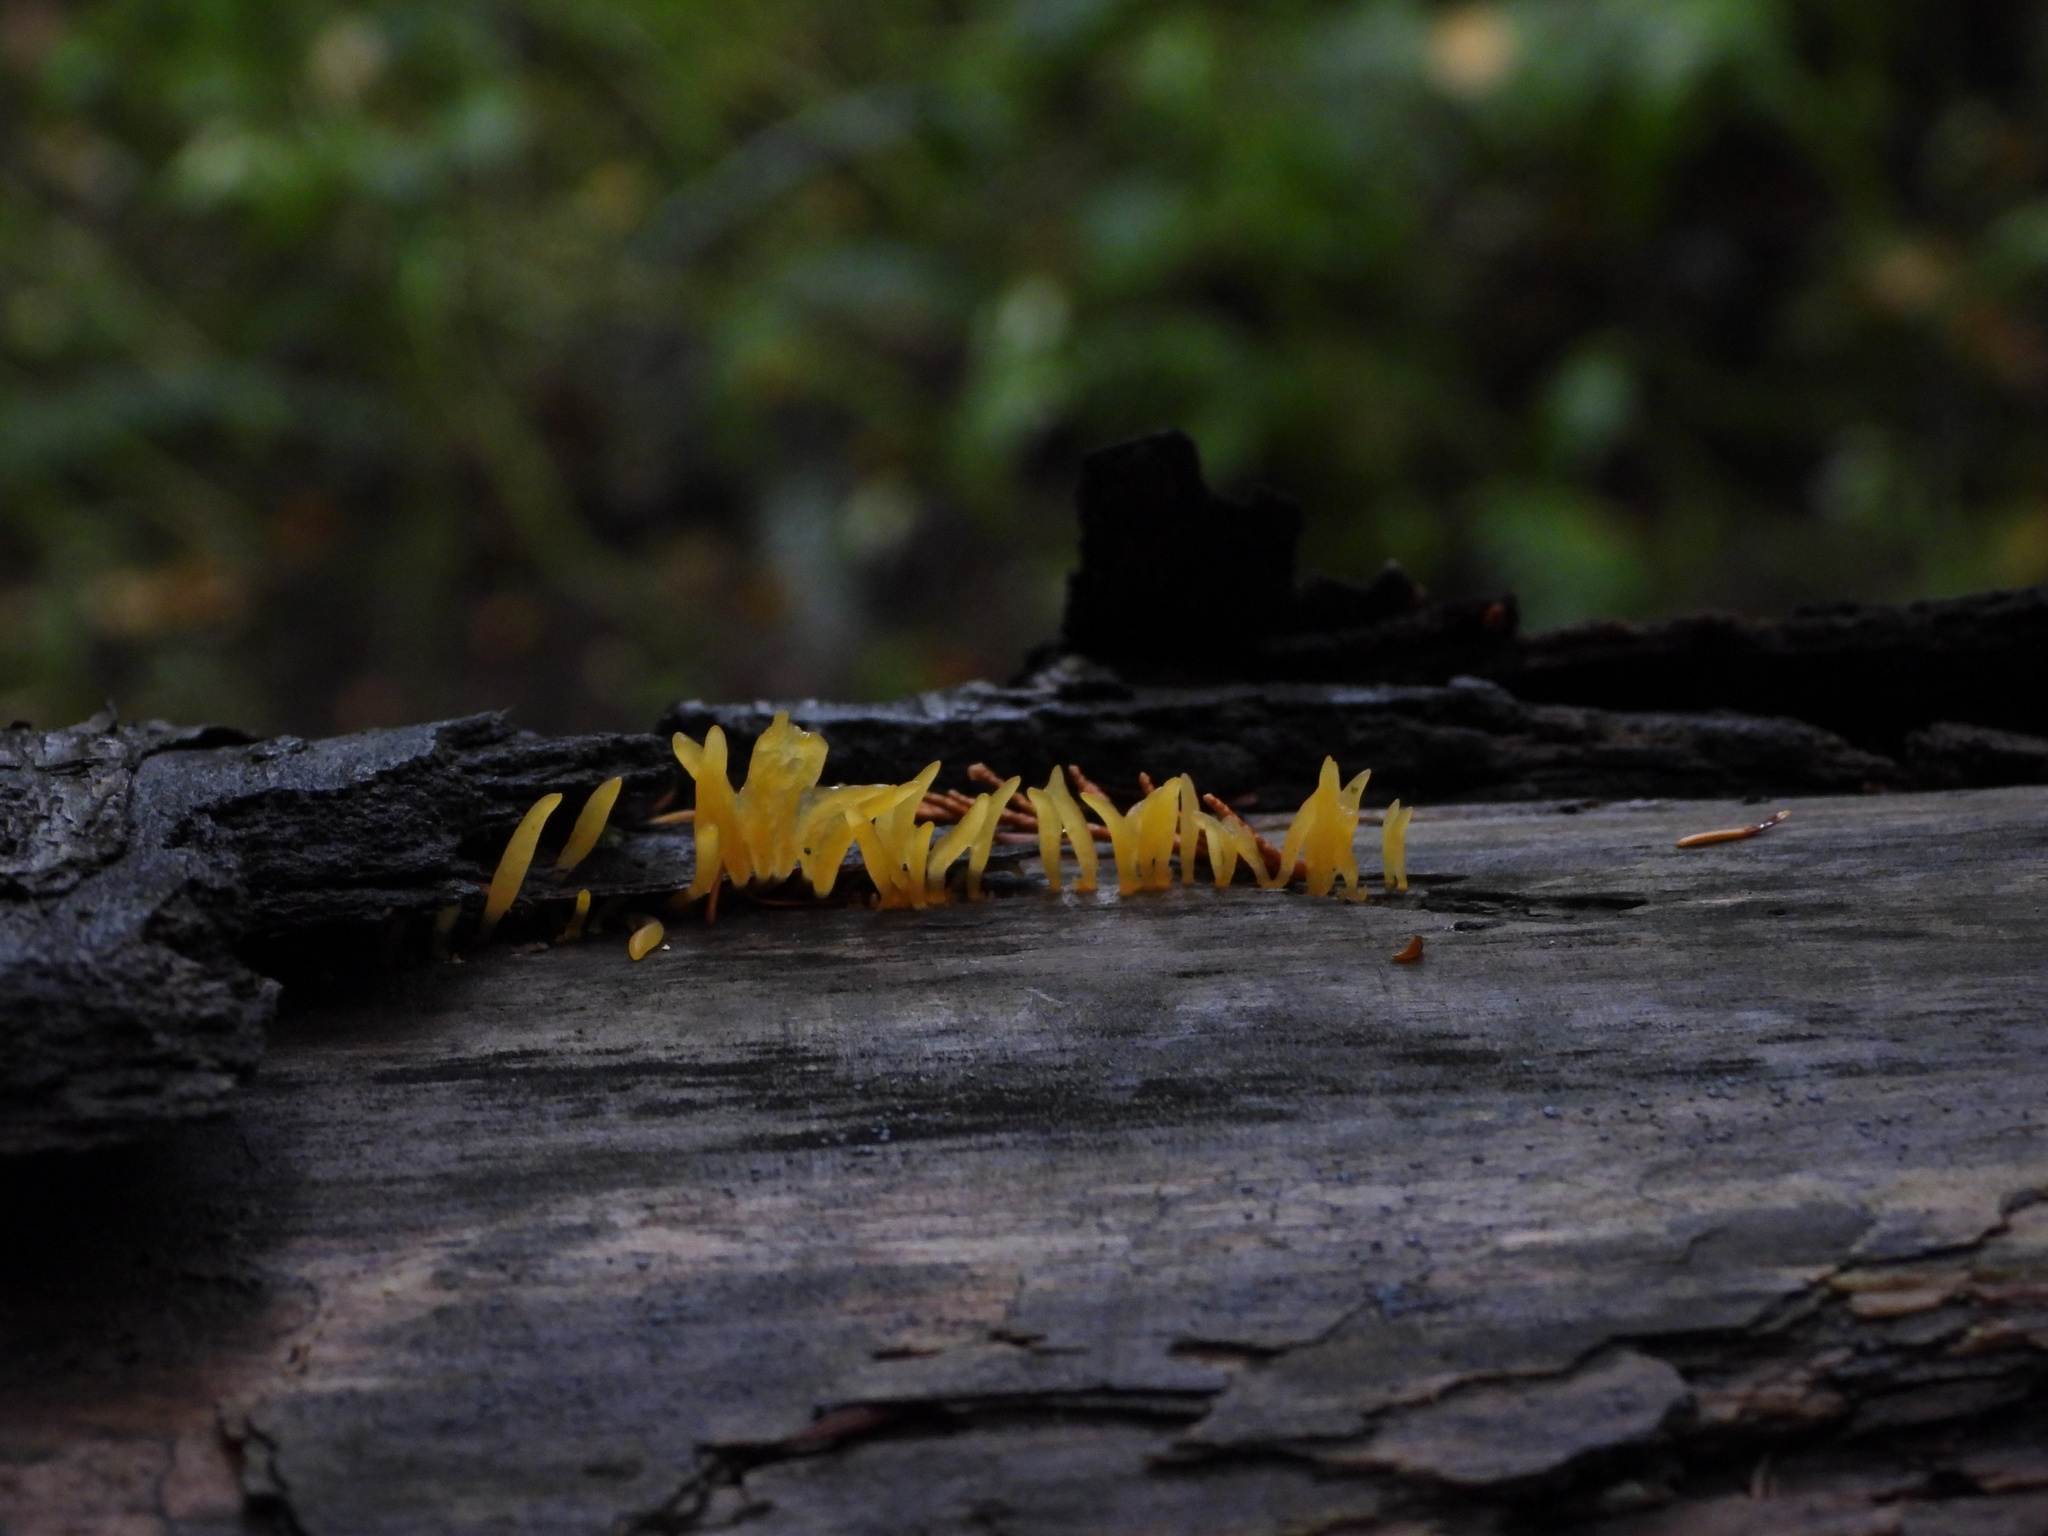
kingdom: Fungi
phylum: Basidiomycota
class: Dacrymycetes
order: Dacrymycetales
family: Dacrymycetaceae
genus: Calocera
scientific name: Calocera cornea
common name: Small stagshorn
